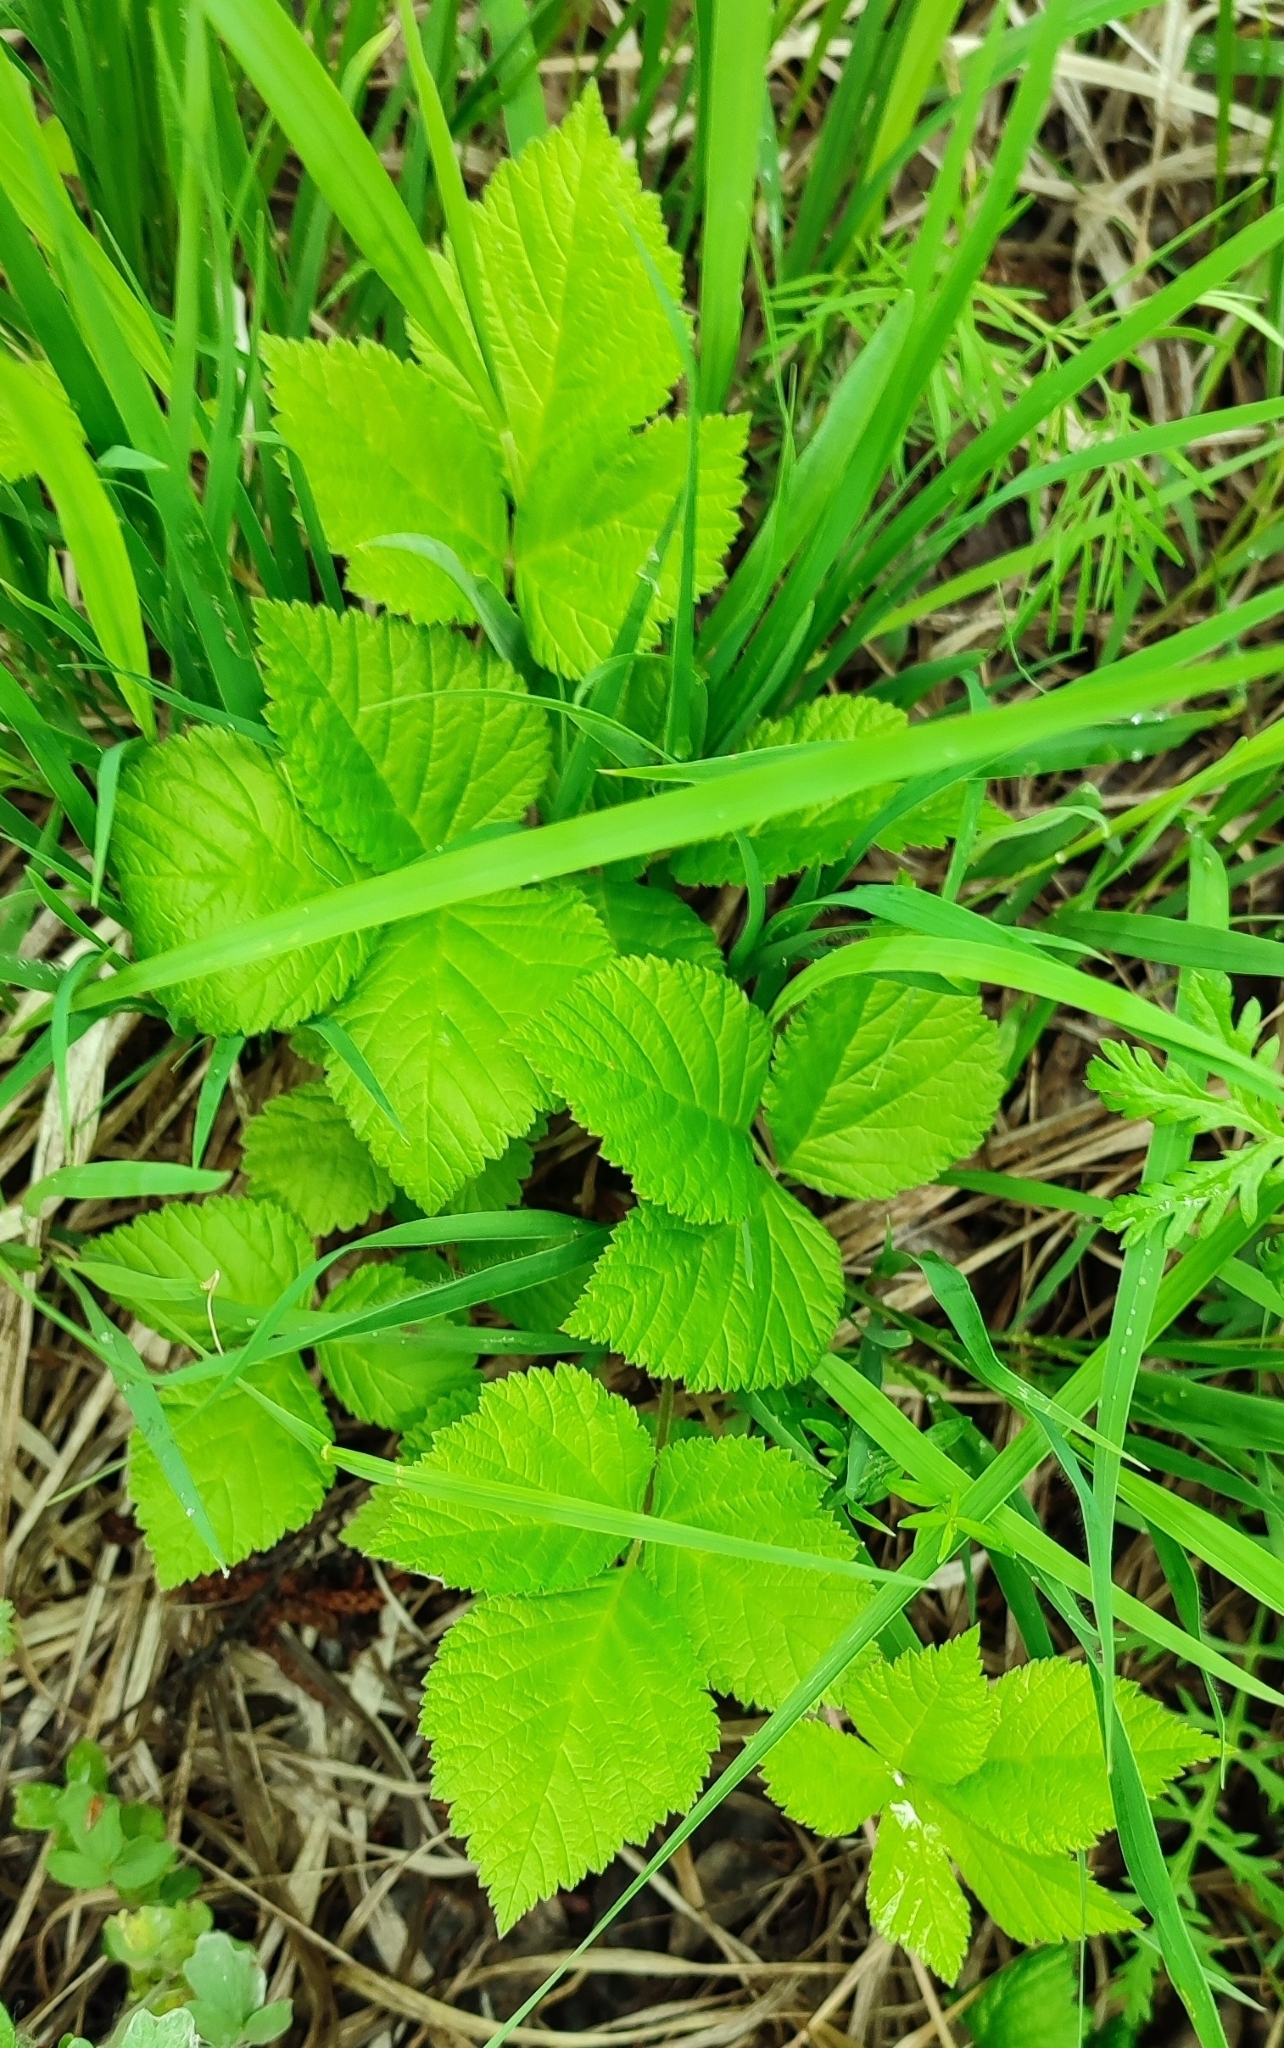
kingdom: Plantae
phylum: Tracheophyta
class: Magnoliopsida
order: Rosales
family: Rosaceae
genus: Rubus
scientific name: Rubus saxatilis
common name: Stone bramble
